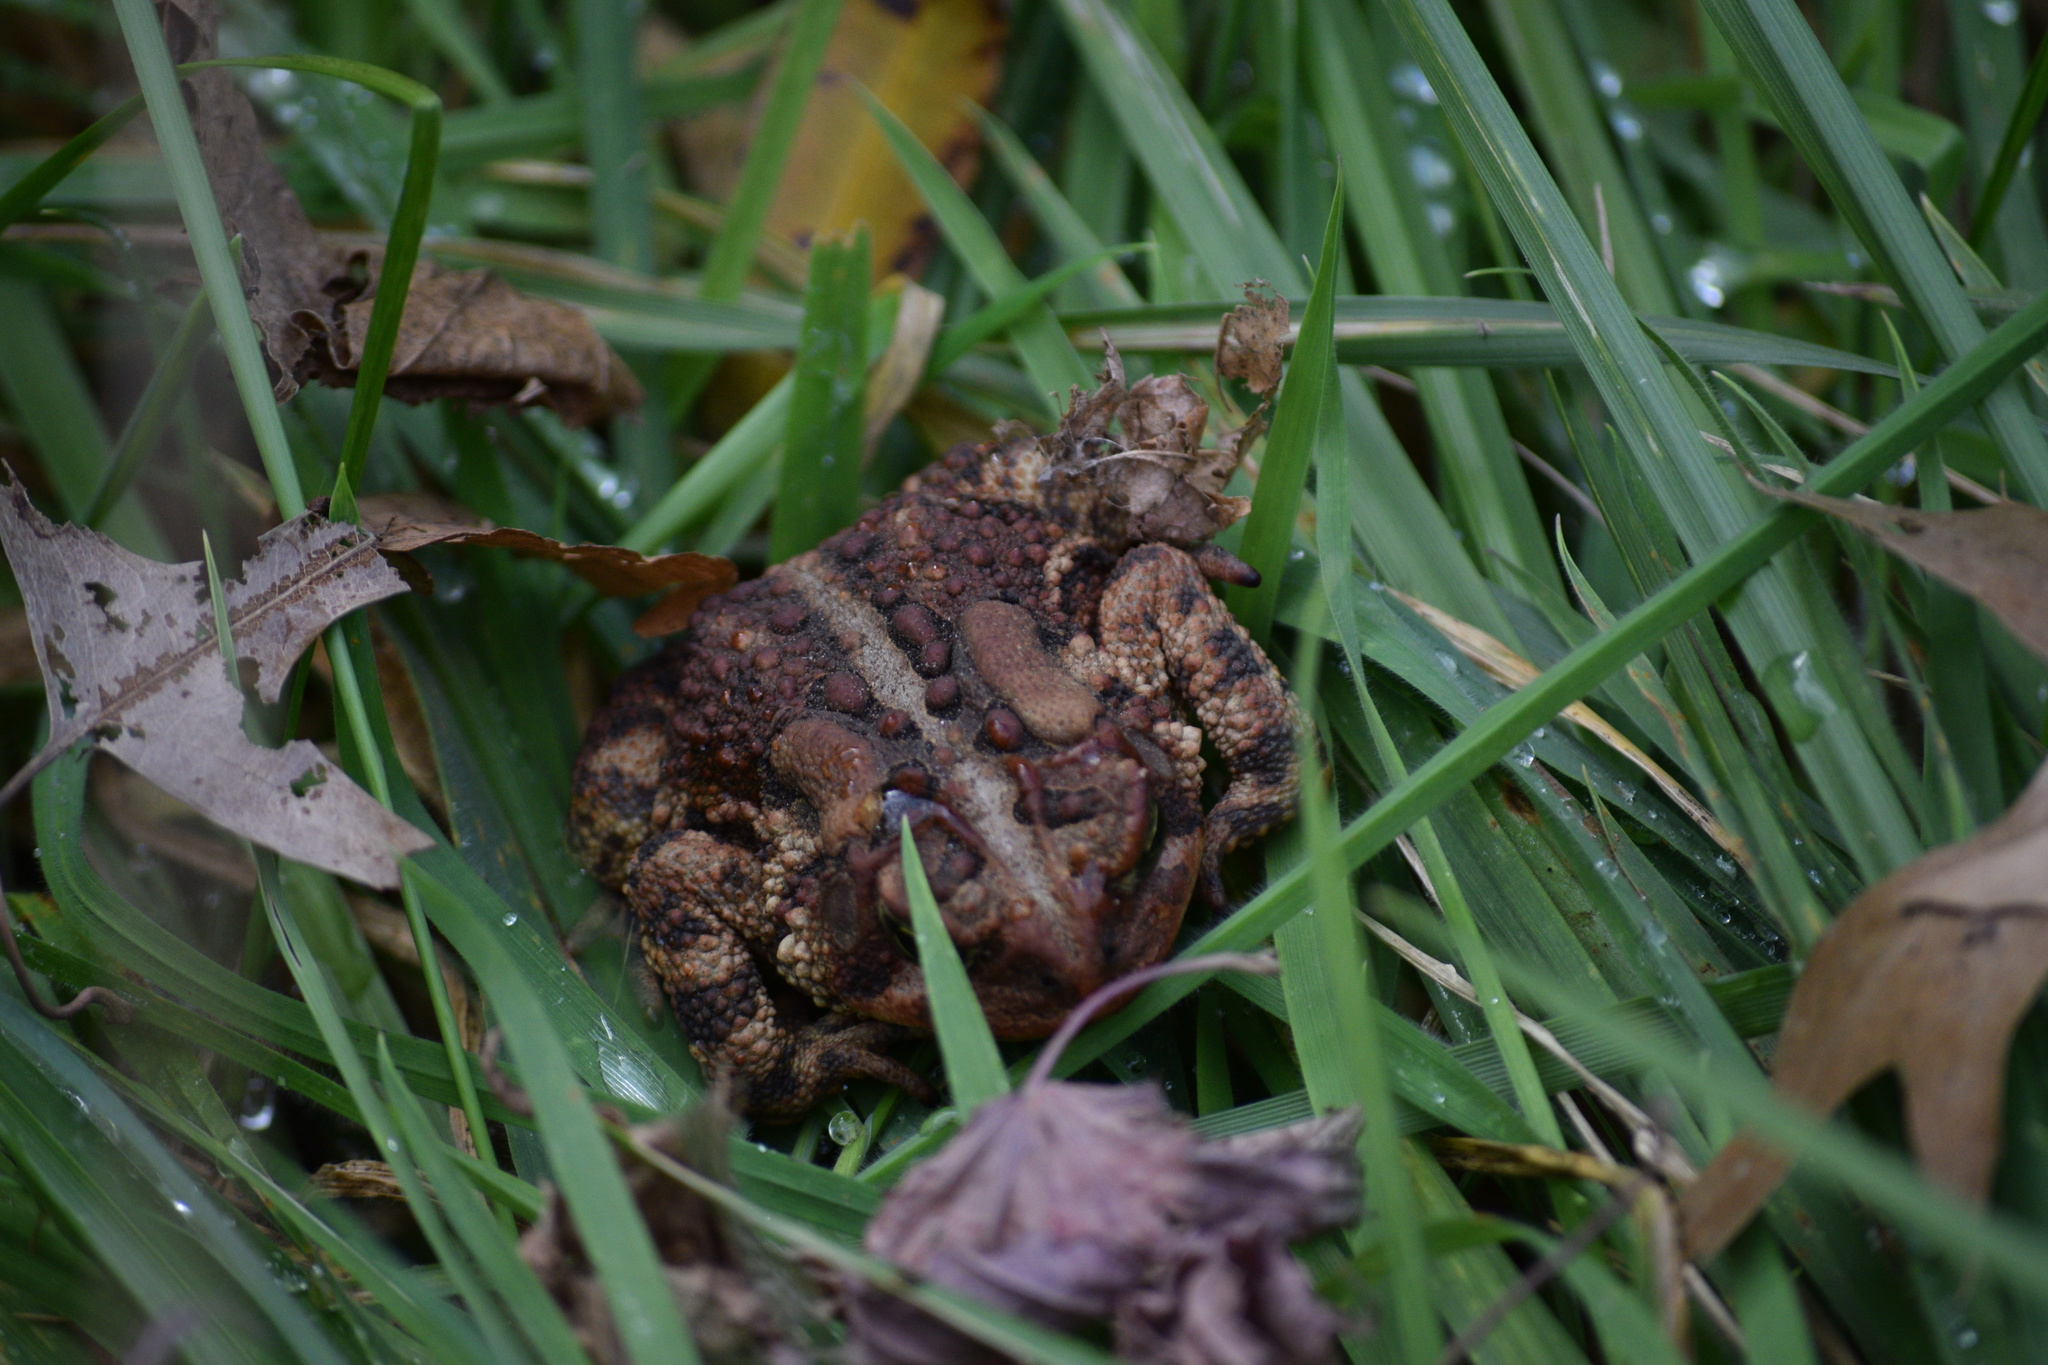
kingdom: Animalia
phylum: Chordata
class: Amphibia
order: Anura
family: Bufonidae
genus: Anaxyrus
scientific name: Anaxyrus americanus
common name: American toad
